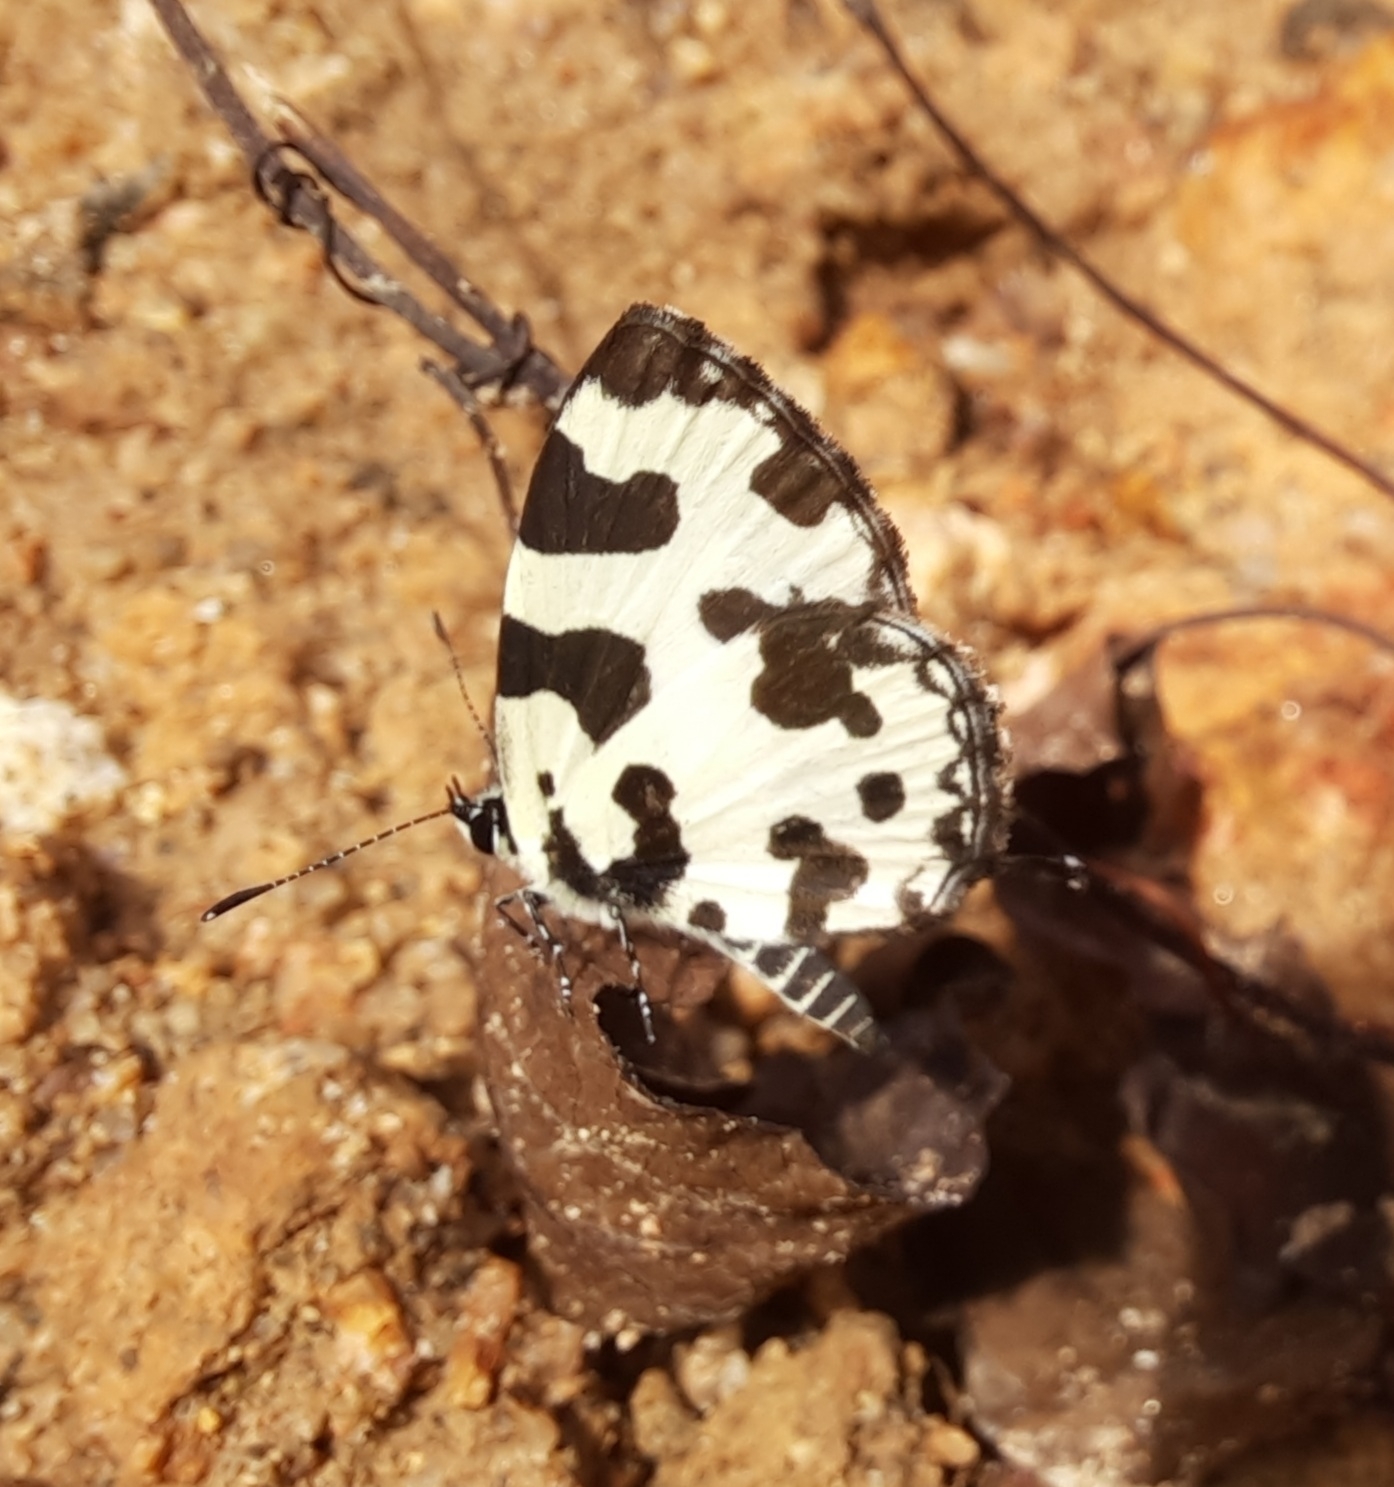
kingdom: Animalia
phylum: Arthropoda
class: Insecta
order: Lepidoptera
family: Lycaenidae
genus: Caleta
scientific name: Caleta decidia
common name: Angled pierrot
